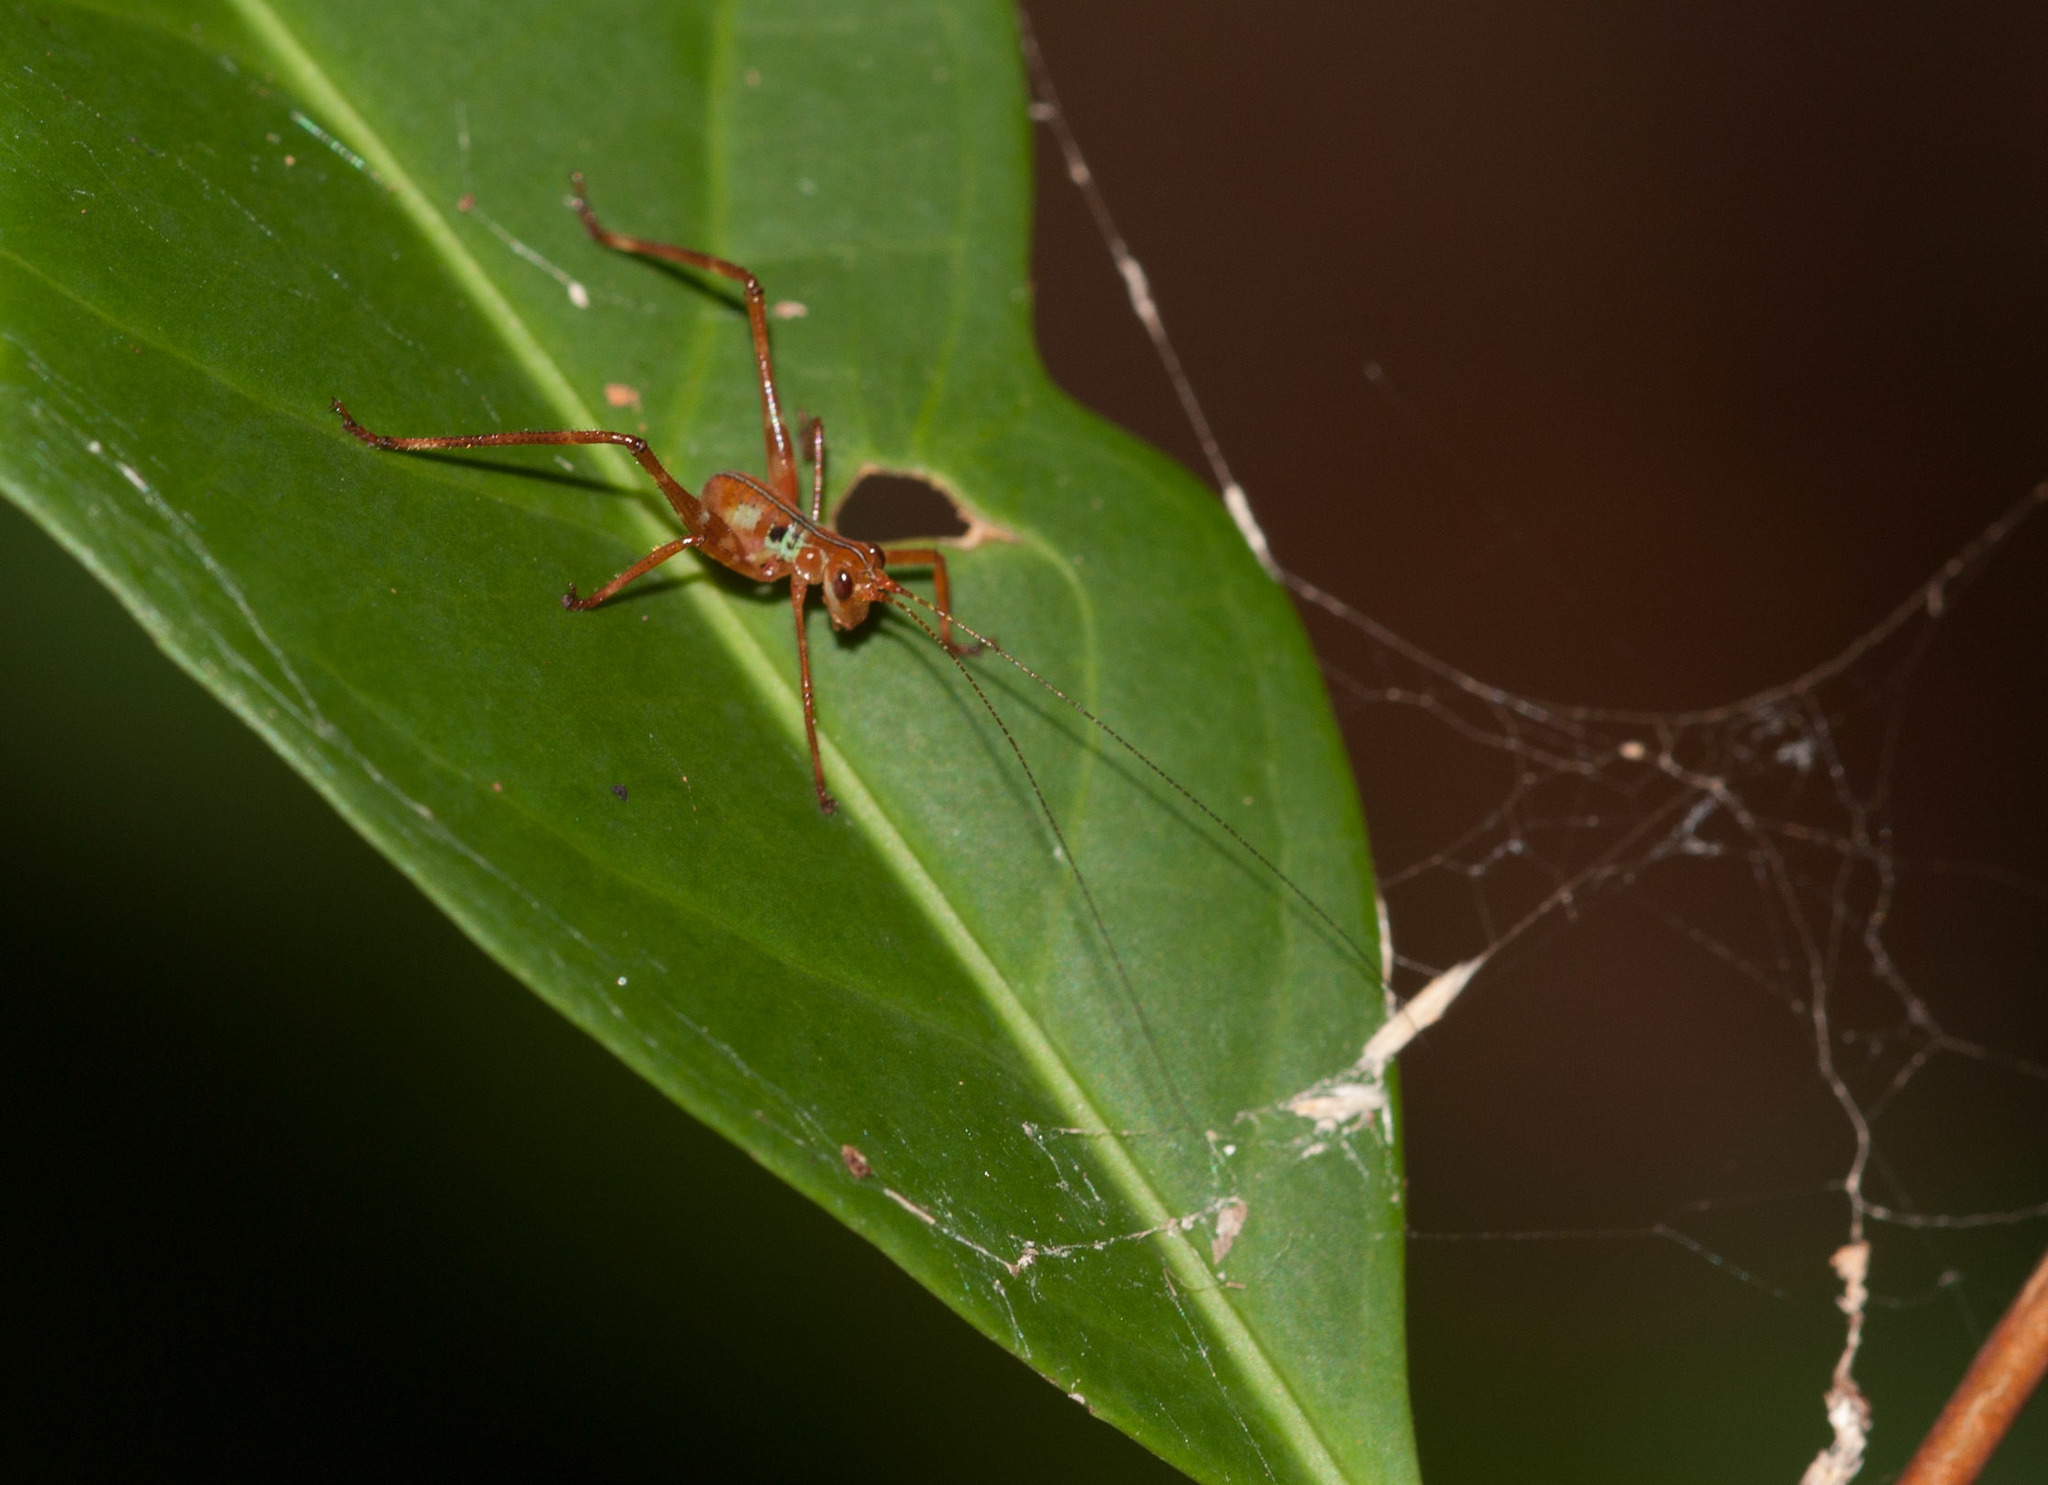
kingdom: Animalia
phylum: Arthropoda
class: Insecta
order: Orthoptera
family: Tettigoniidae
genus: Paracaedicia
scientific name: Paracaedicia serrata
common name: Serrated bush katydid
